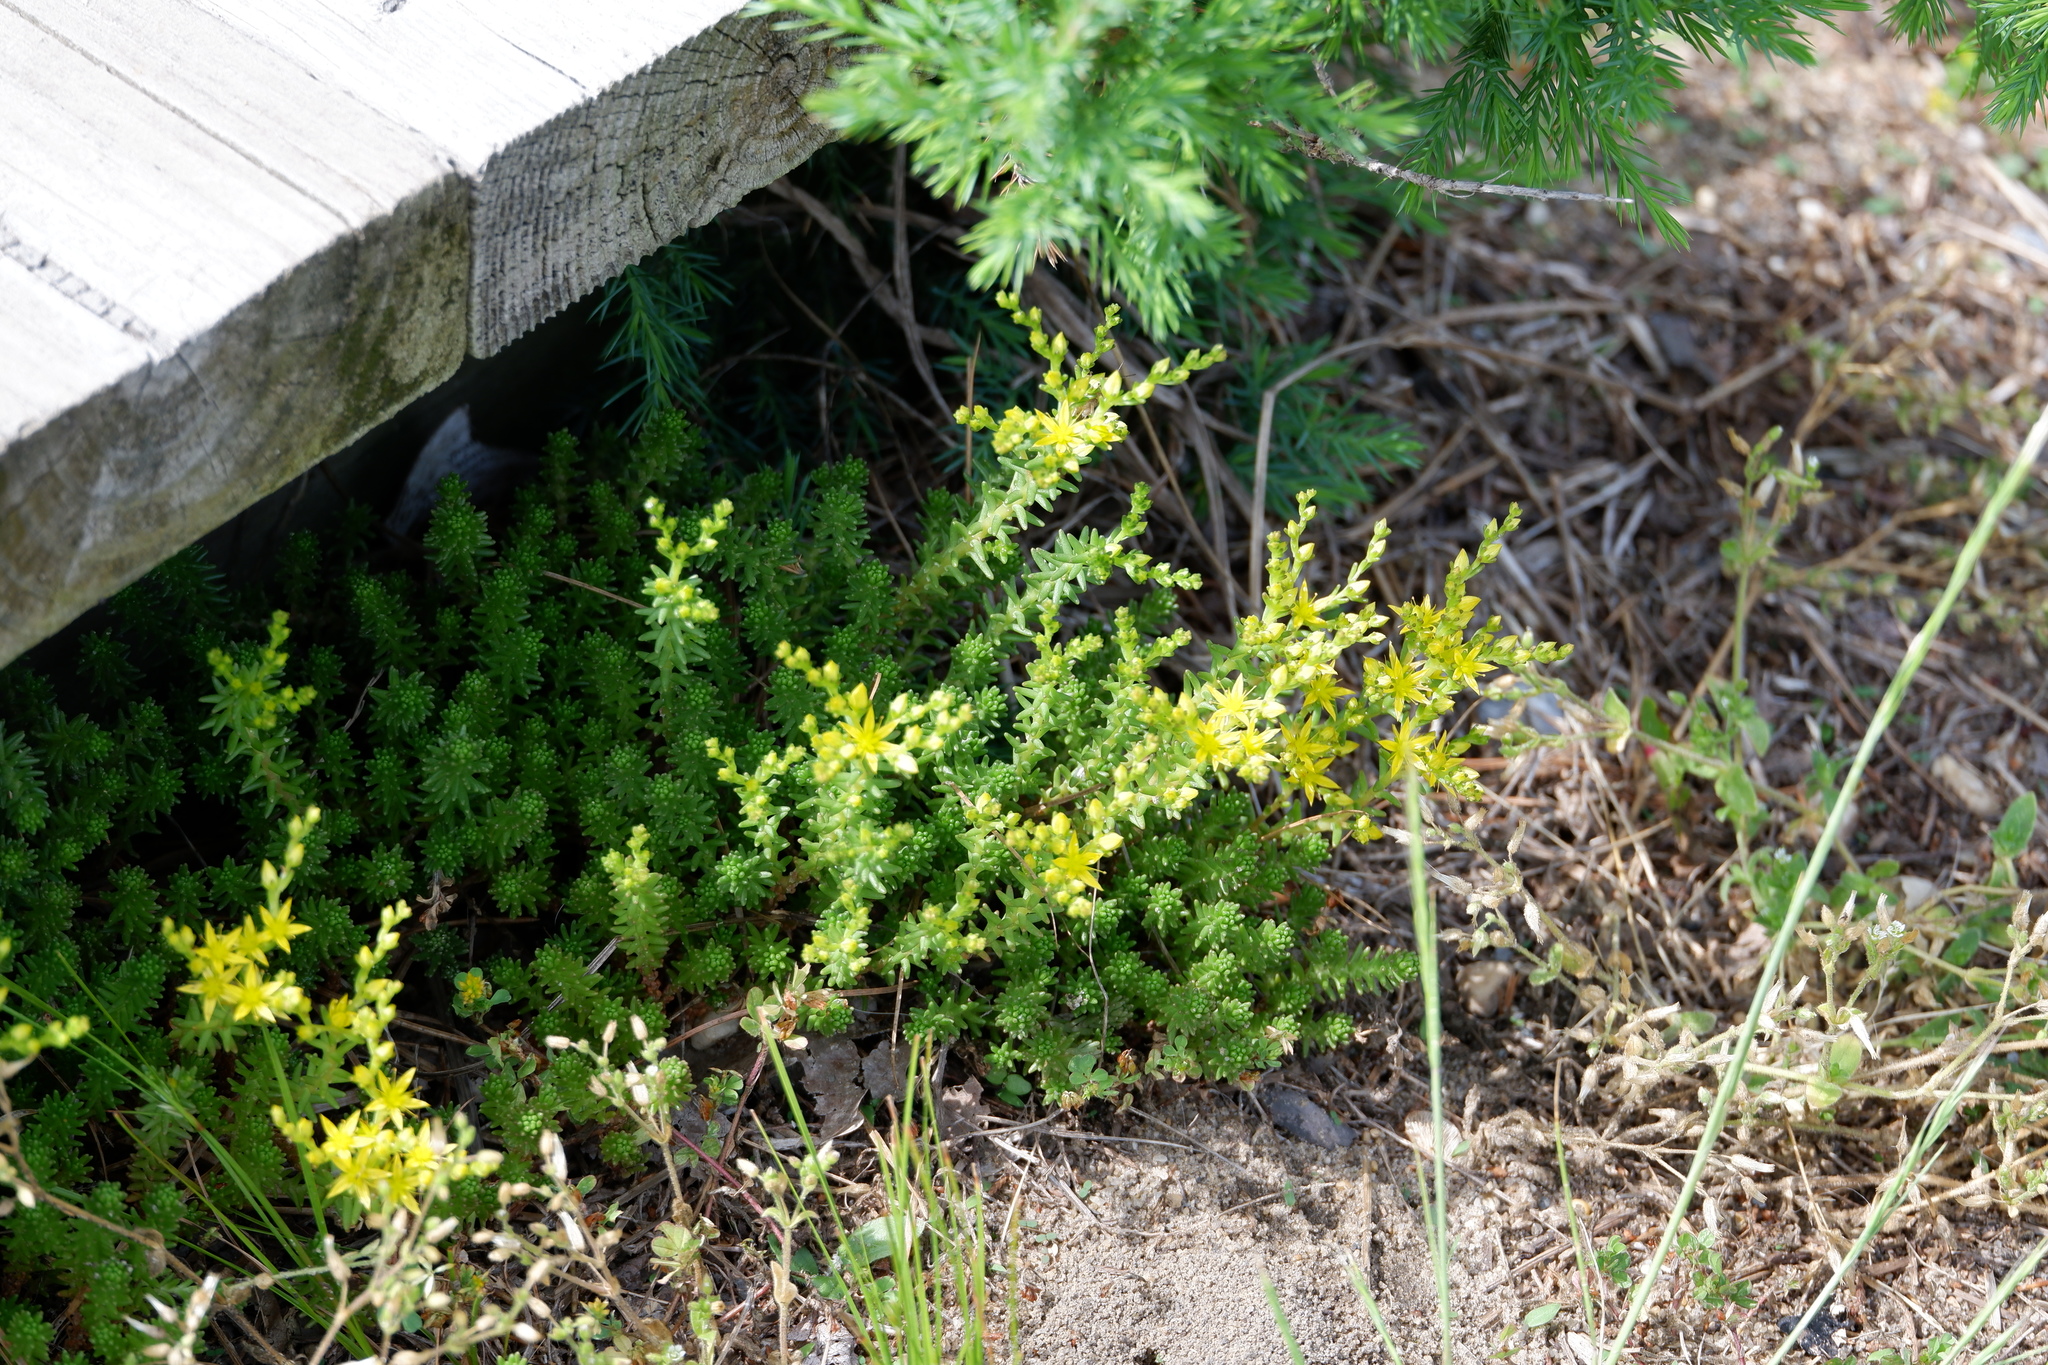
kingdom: Plantae
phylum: Tracheophyta
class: Magnoliopsida
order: Saxifragales
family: Crassulaceae
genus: Sedum
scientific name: Sedum sexangulare
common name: Tasteless stonecrop
